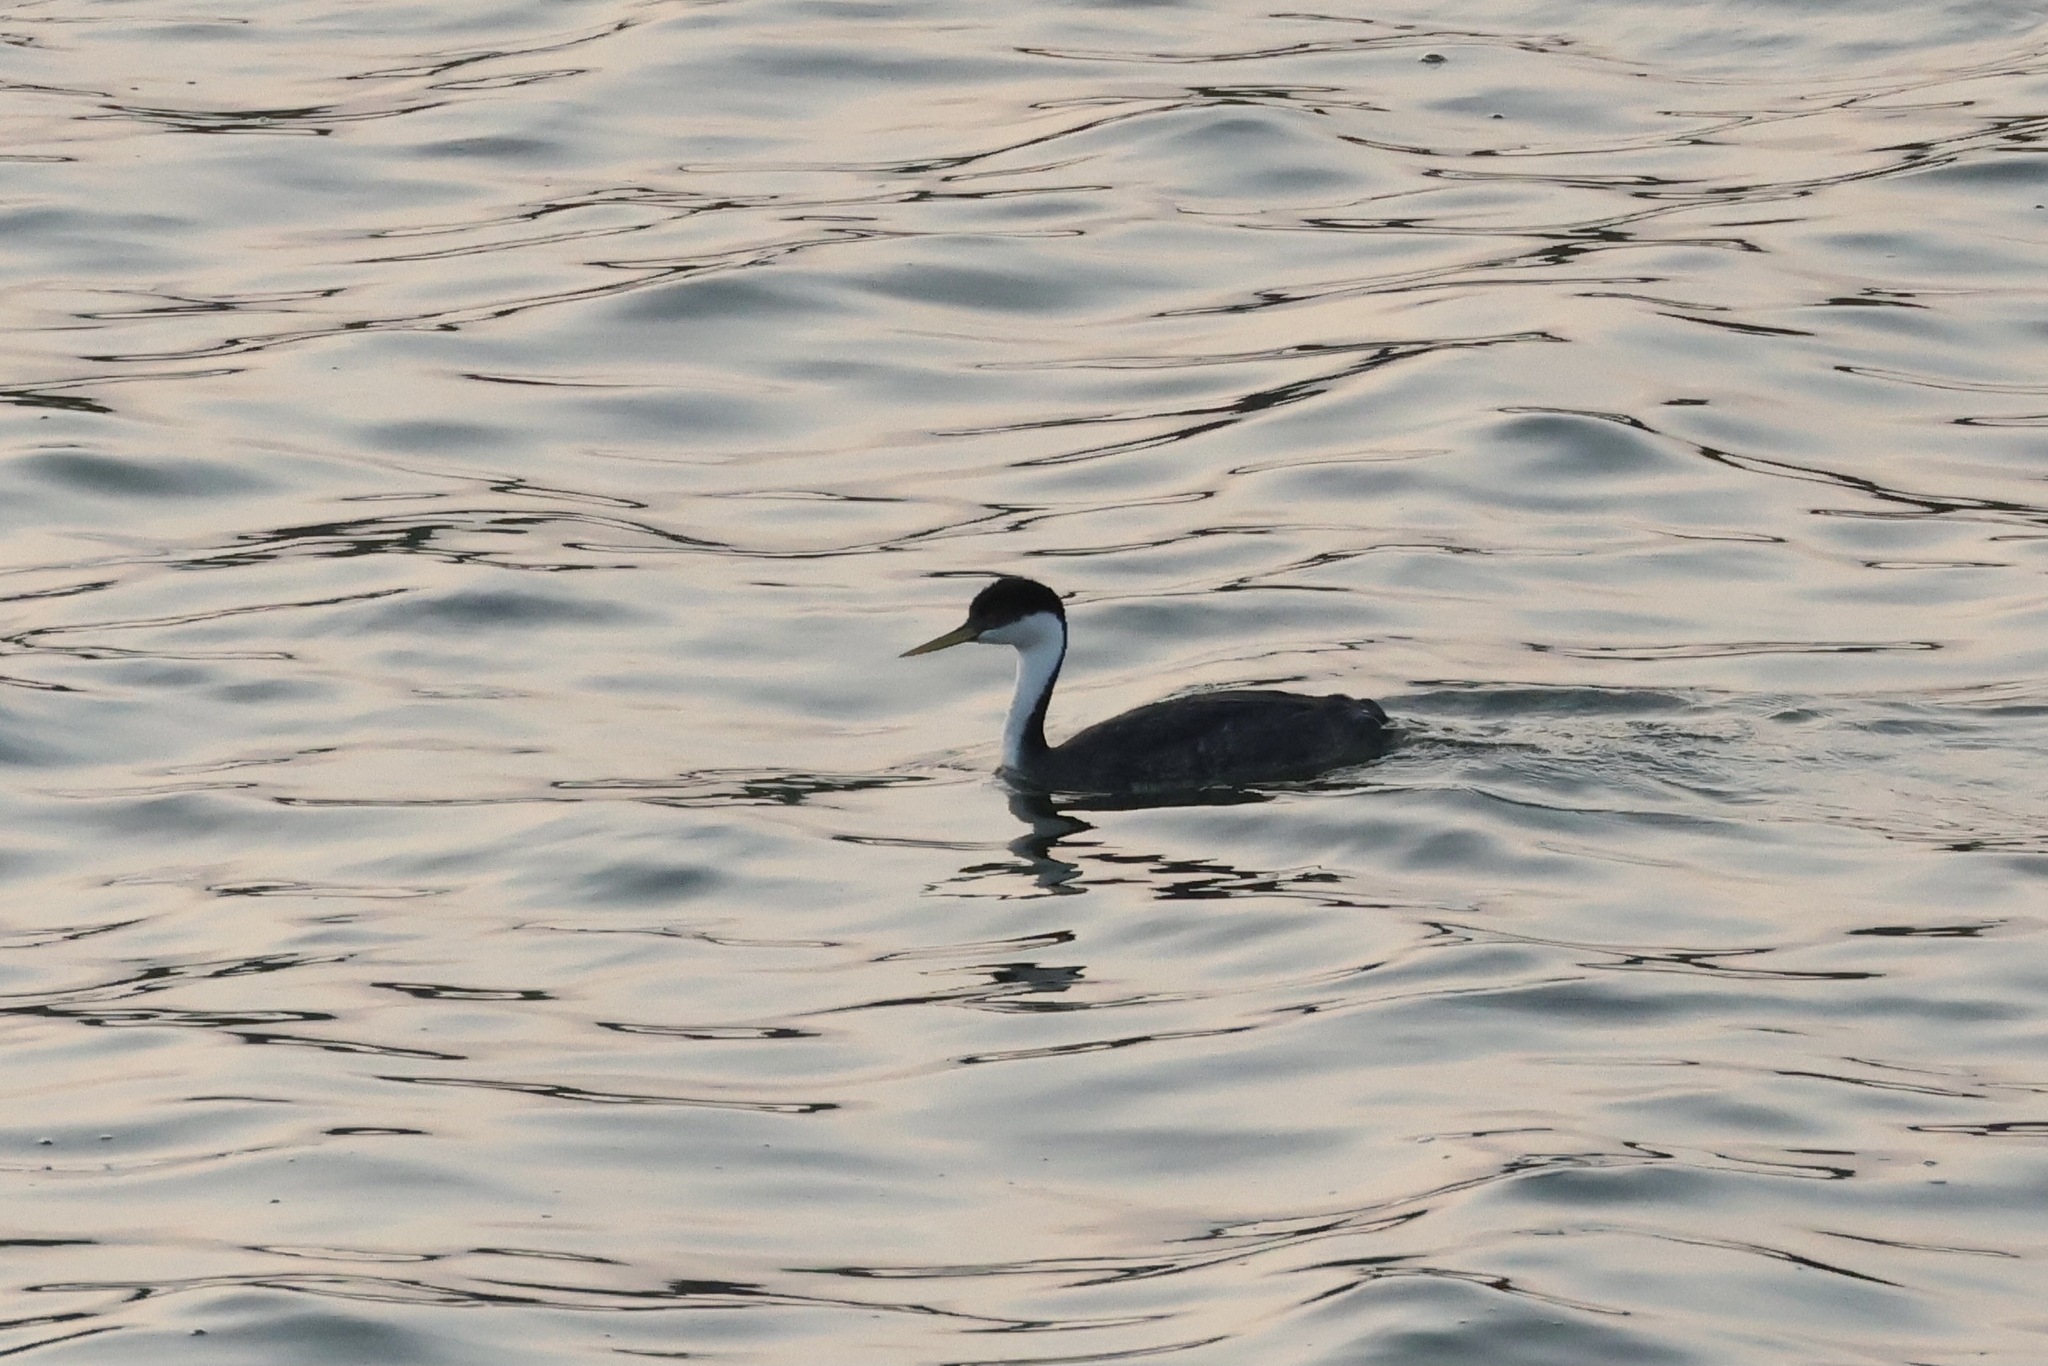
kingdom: Animalia
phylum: Chordata
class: Aves
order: Podicipediformes
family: Podicipedidae
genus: Aechmophorus
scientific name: Aechmophorus occidentalis
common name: Western grebe
